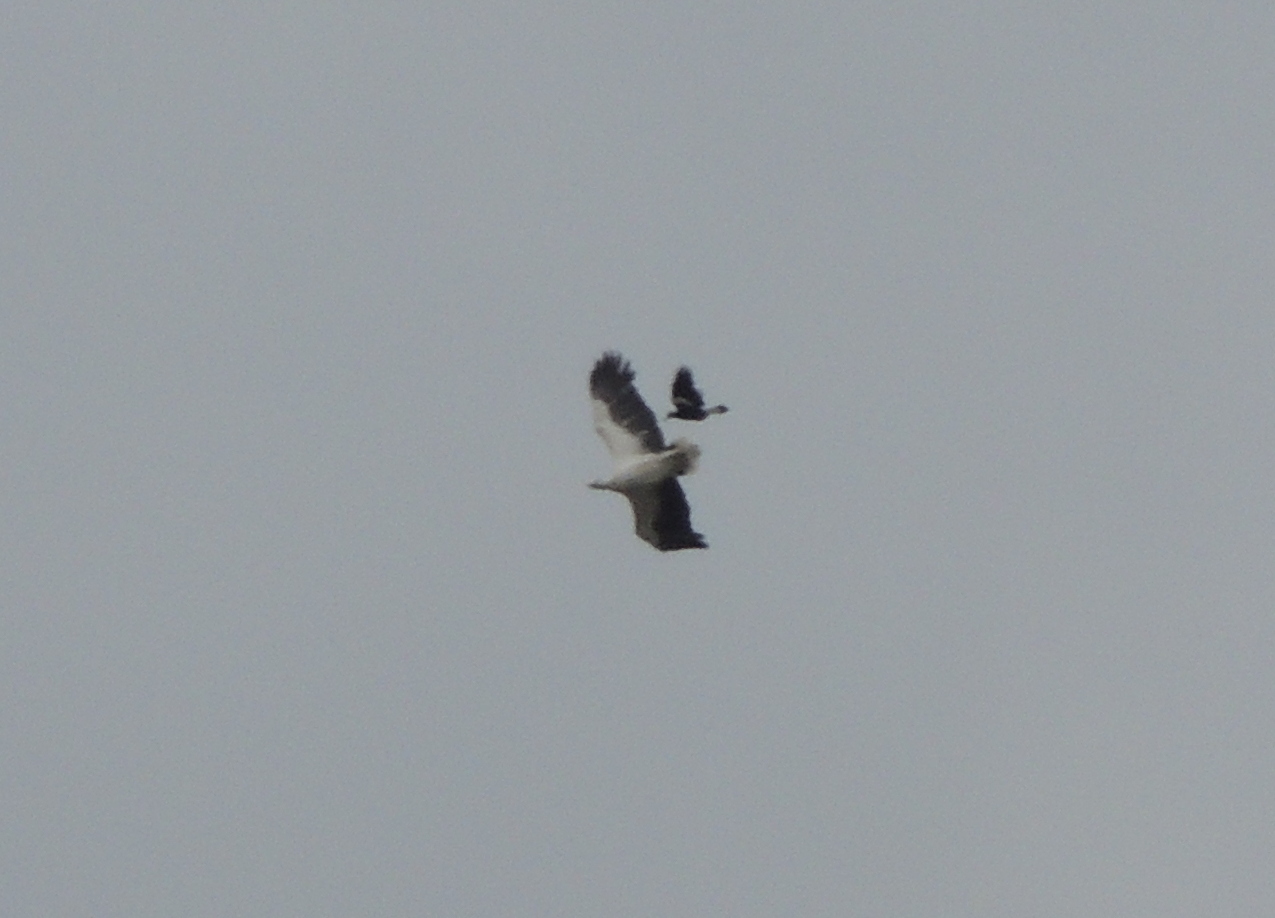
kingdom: Animalia
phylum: Chordata
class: Aves
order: Passeriformes
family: Cracticidae
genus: Gymnorhina
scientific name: Gymnorhina tibicen
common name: Australian magpie
